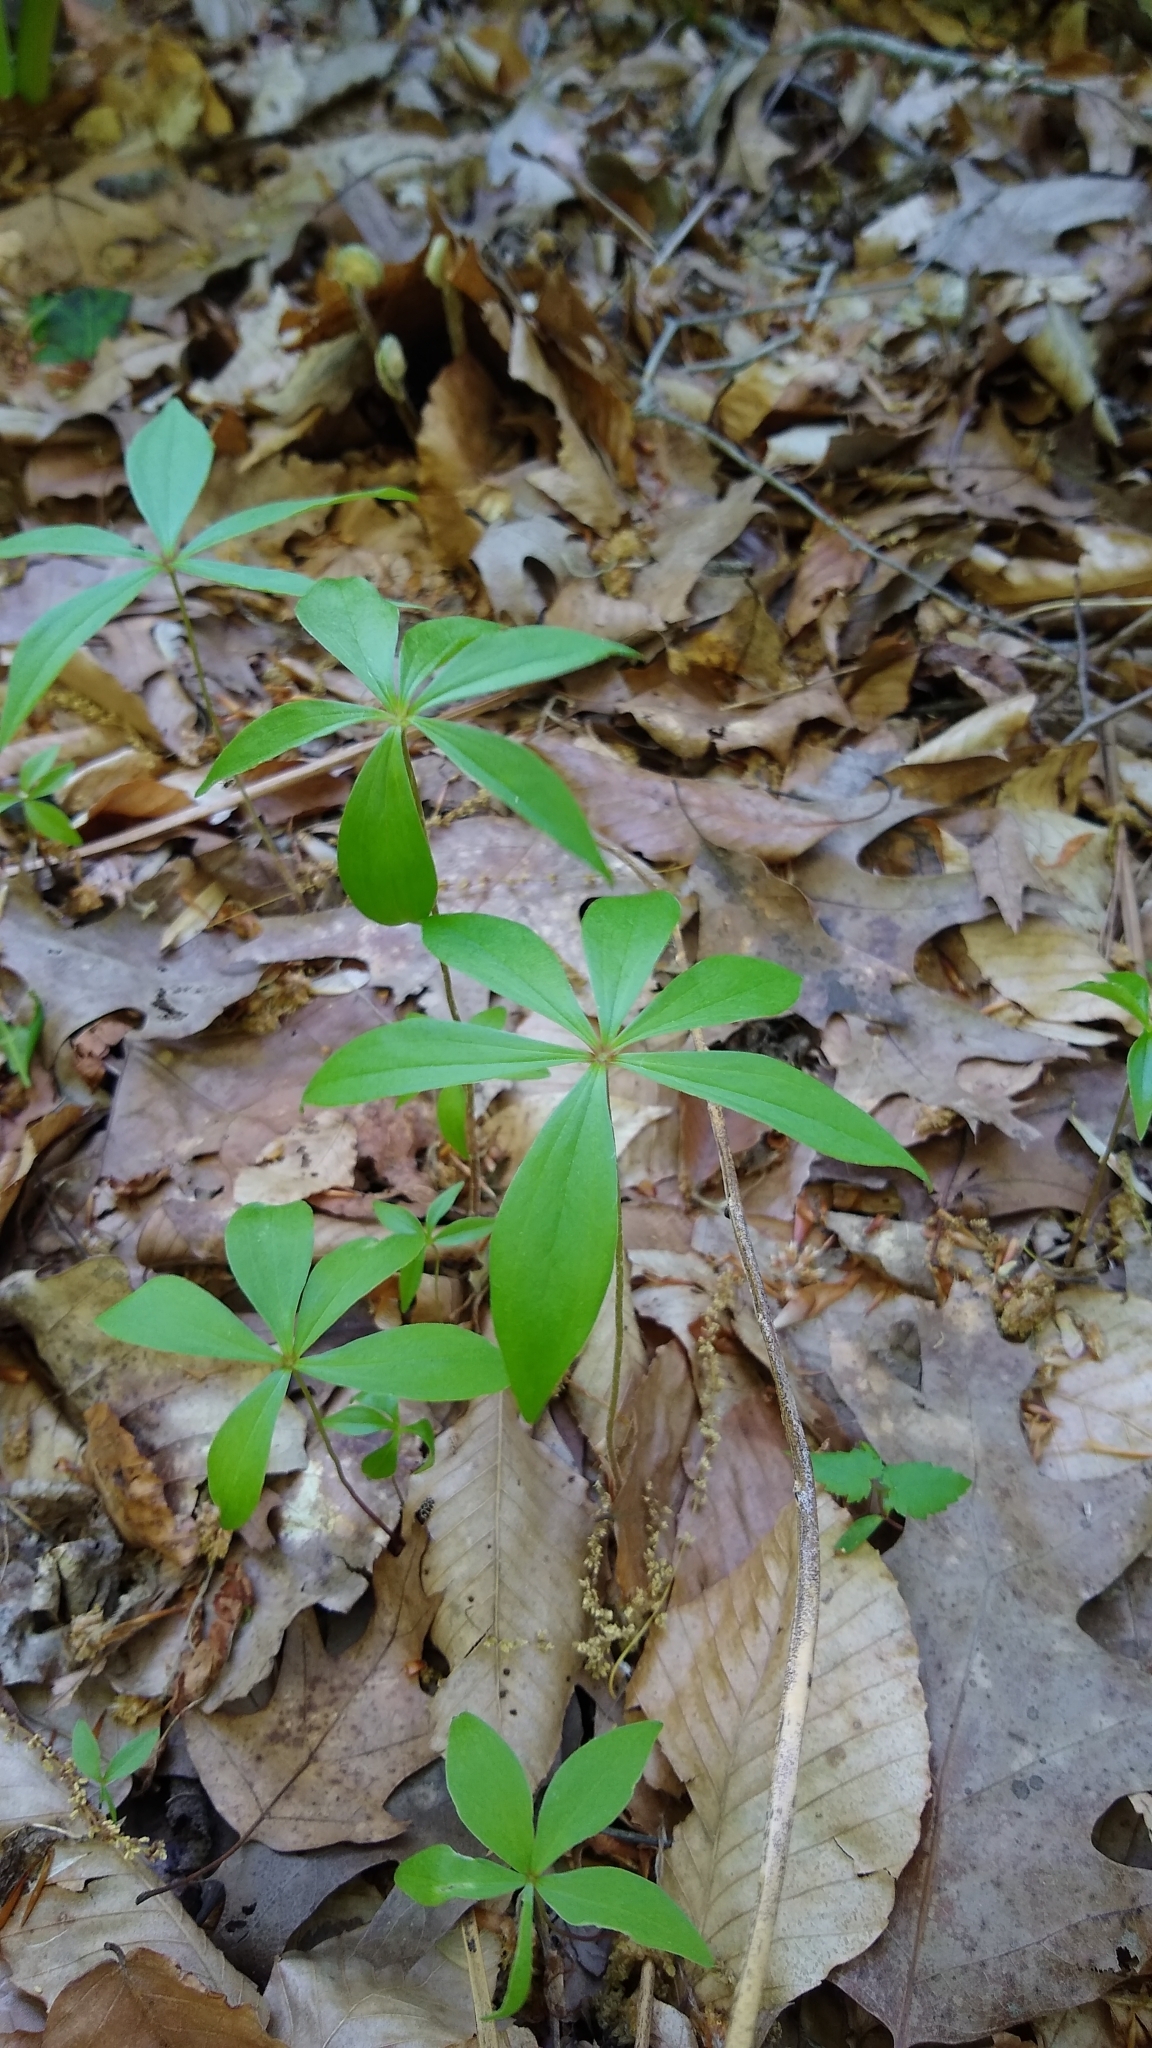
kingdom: Plantae
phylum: Tracheophyta
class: Liliopsida
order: Liliales
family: Liliaceae
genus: Medeola
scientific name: Medeola virginiana
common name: Indian cucumber-root
